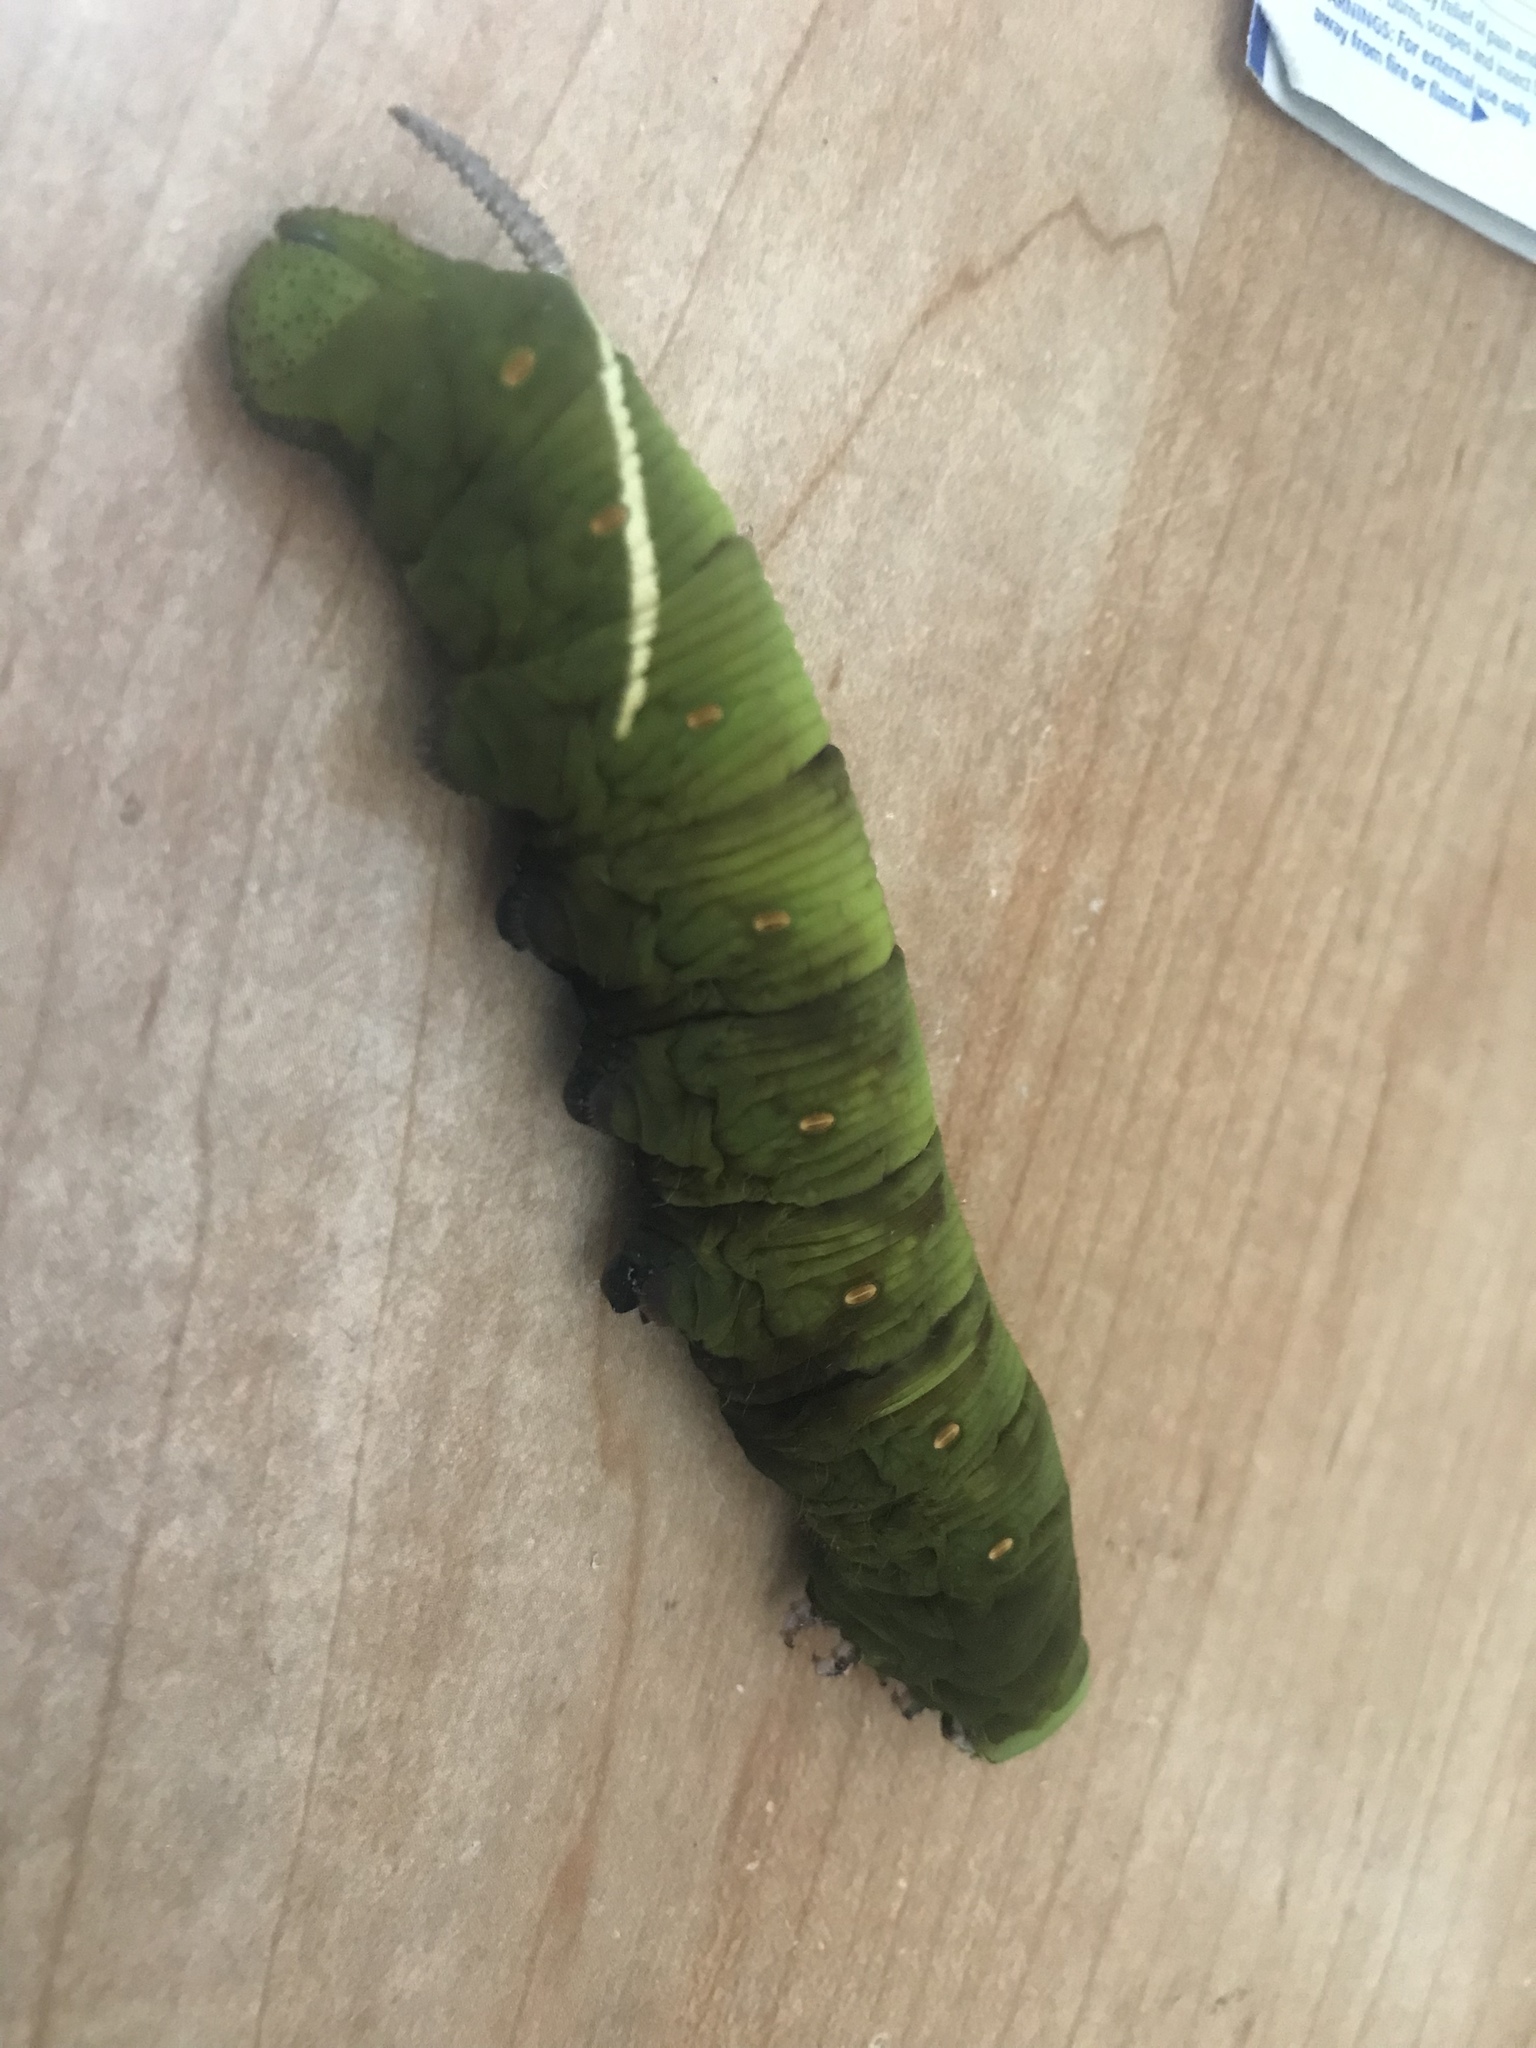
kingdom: Animalia
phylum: Arthropoda
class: Insecta
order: Lepidoptera
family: Sphingidae
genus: Cocytius
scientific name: Cocytius antaeus
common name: Giant sphinx
